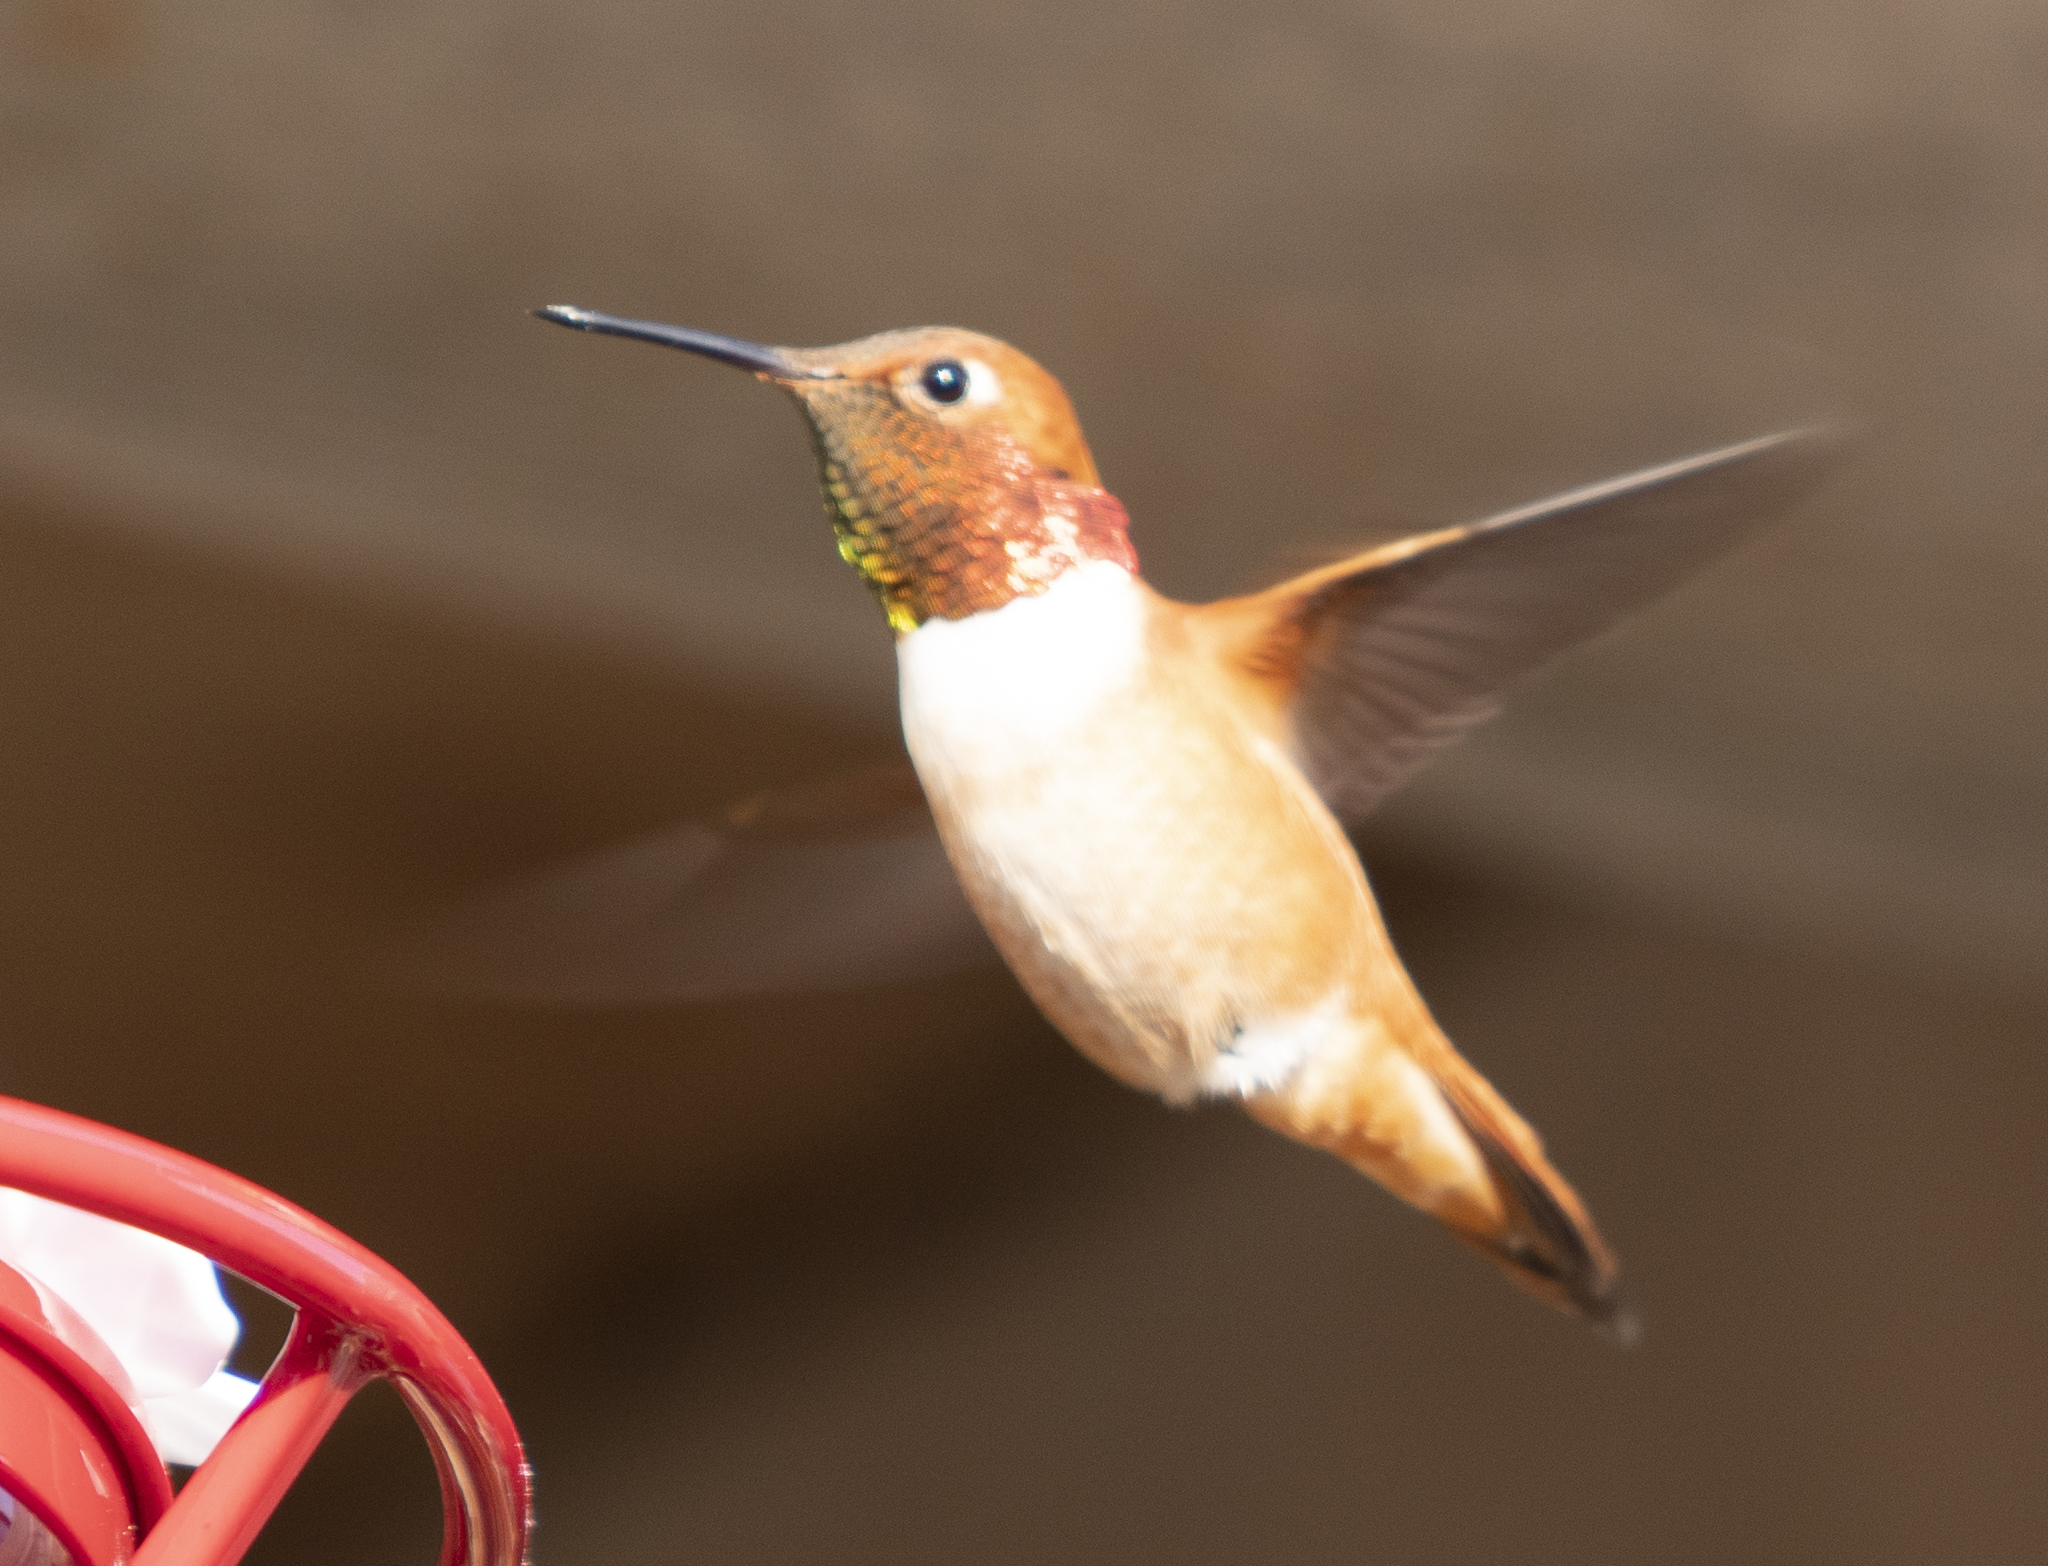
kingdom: Animalia
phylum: Chordata
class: Aves
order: Apodiformes
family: Trochilidae
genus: Selasphorus
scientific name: Selasphorus rufus
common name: Rufous hummingbird
